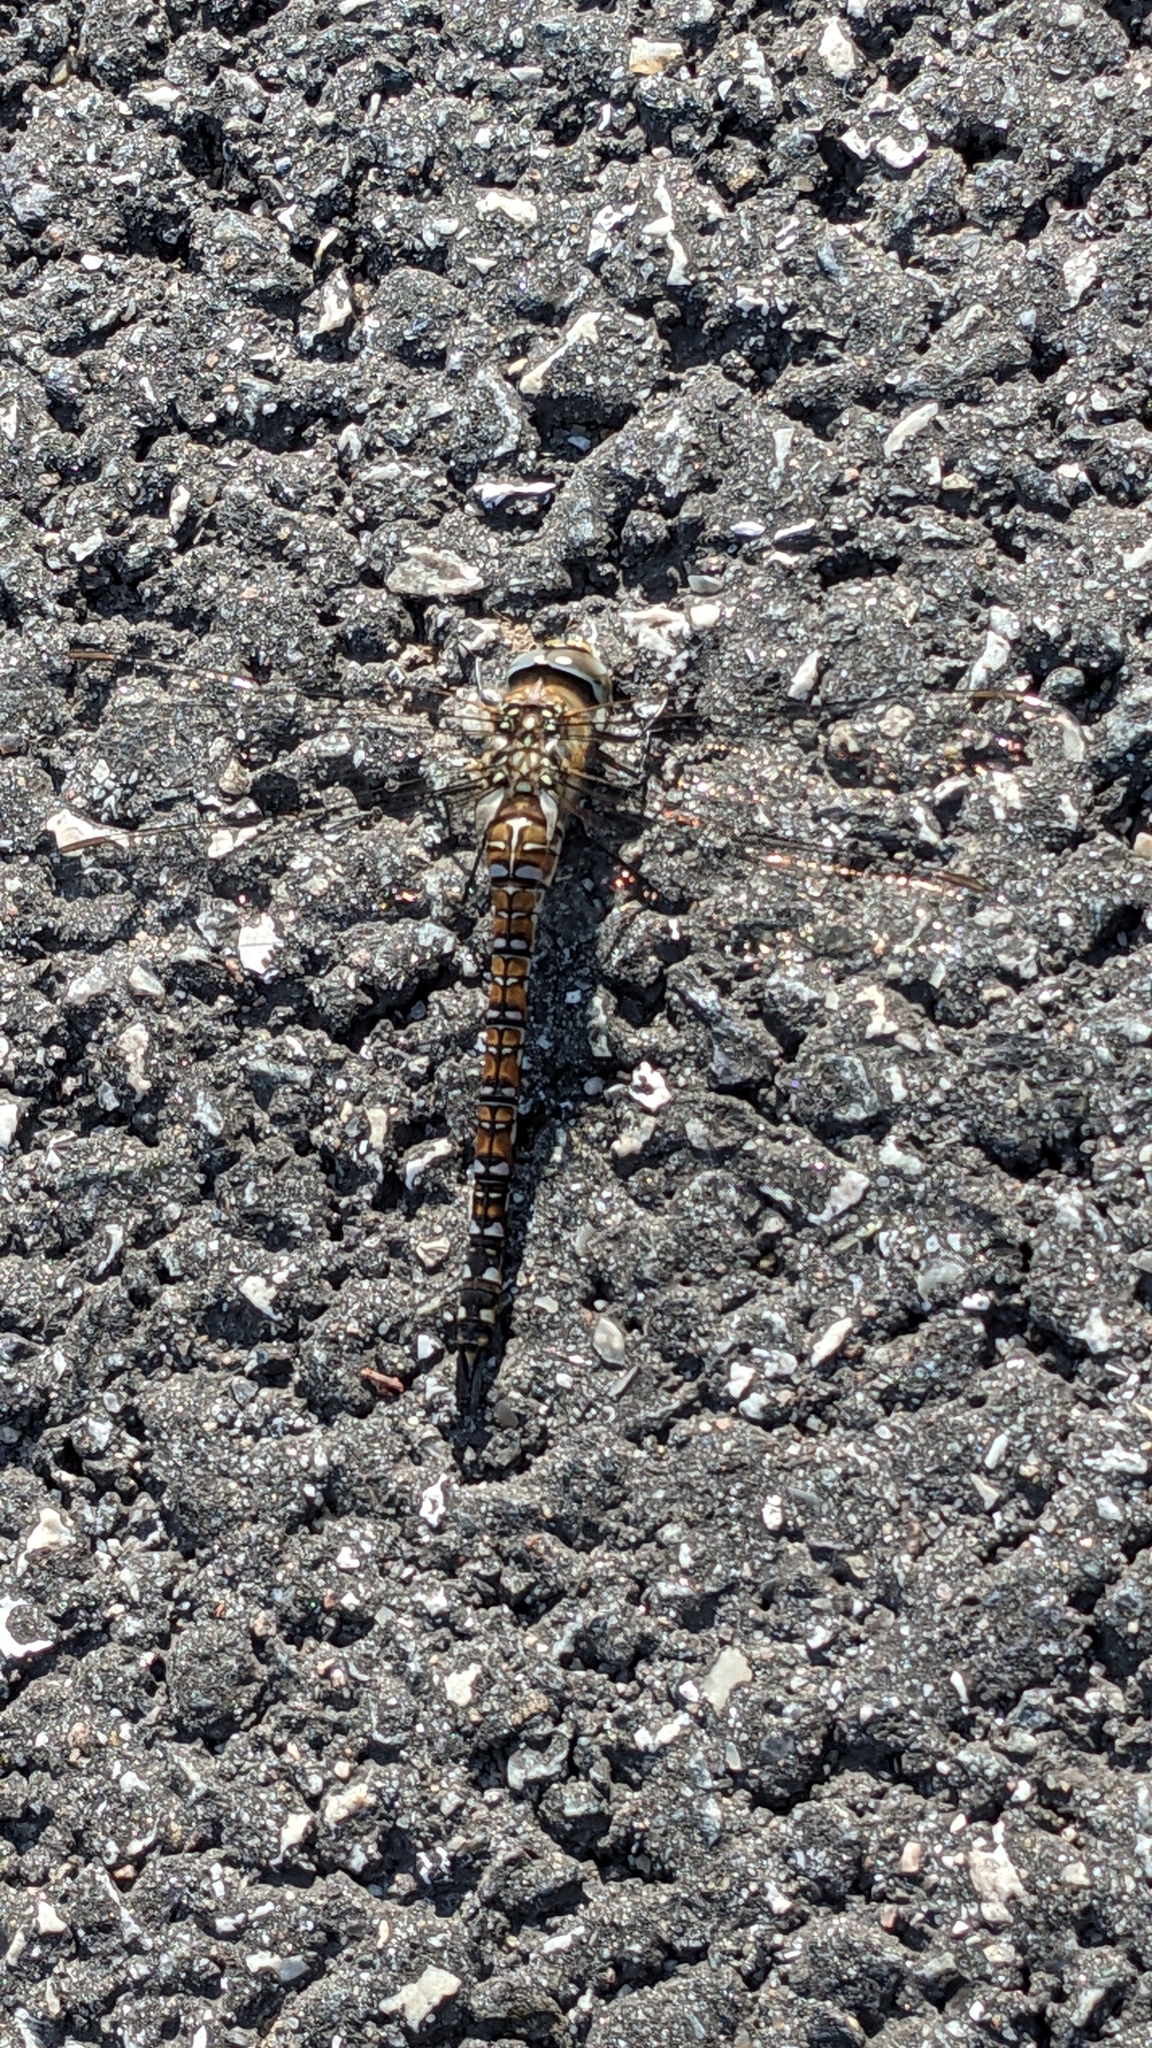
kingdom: Animalia
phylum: Arthropoda
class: Insecta
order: Odonata
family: Aeshnidae
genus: Aeshna
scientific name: Aeshna mixta
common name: Migrant hawker
